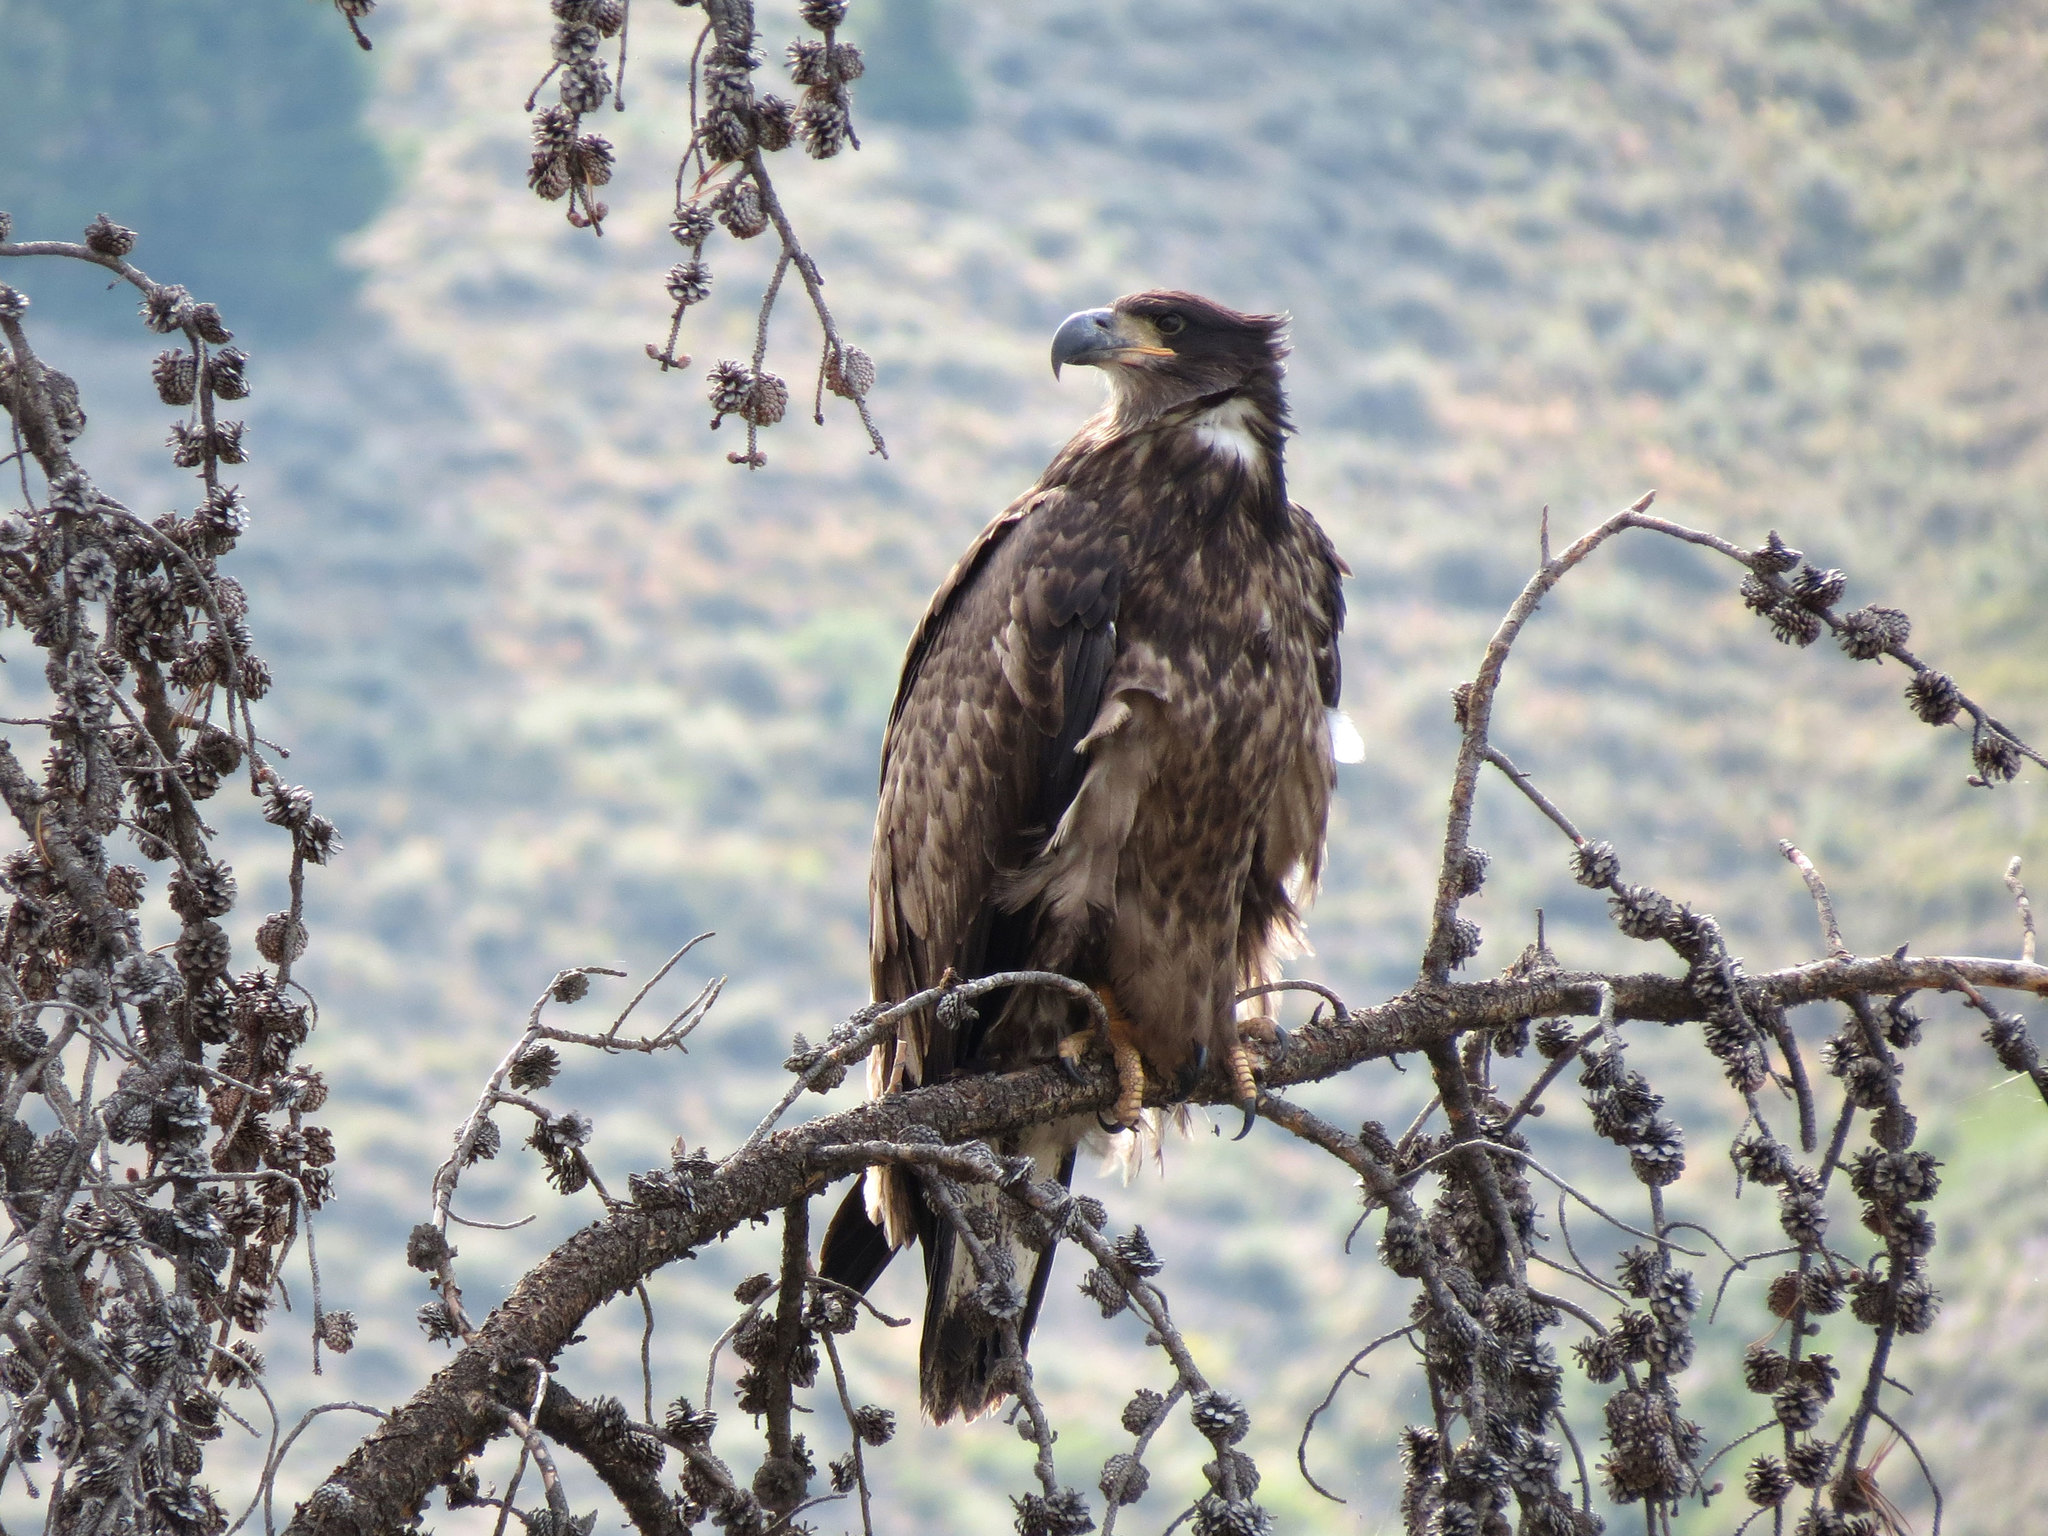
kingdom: Animalia
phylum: Chordata
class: Aves
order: Accipitriformes
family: Accipitridae
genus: Haliaeetus
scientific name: Haliaeetus leucocephalus
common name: Bald eagle
